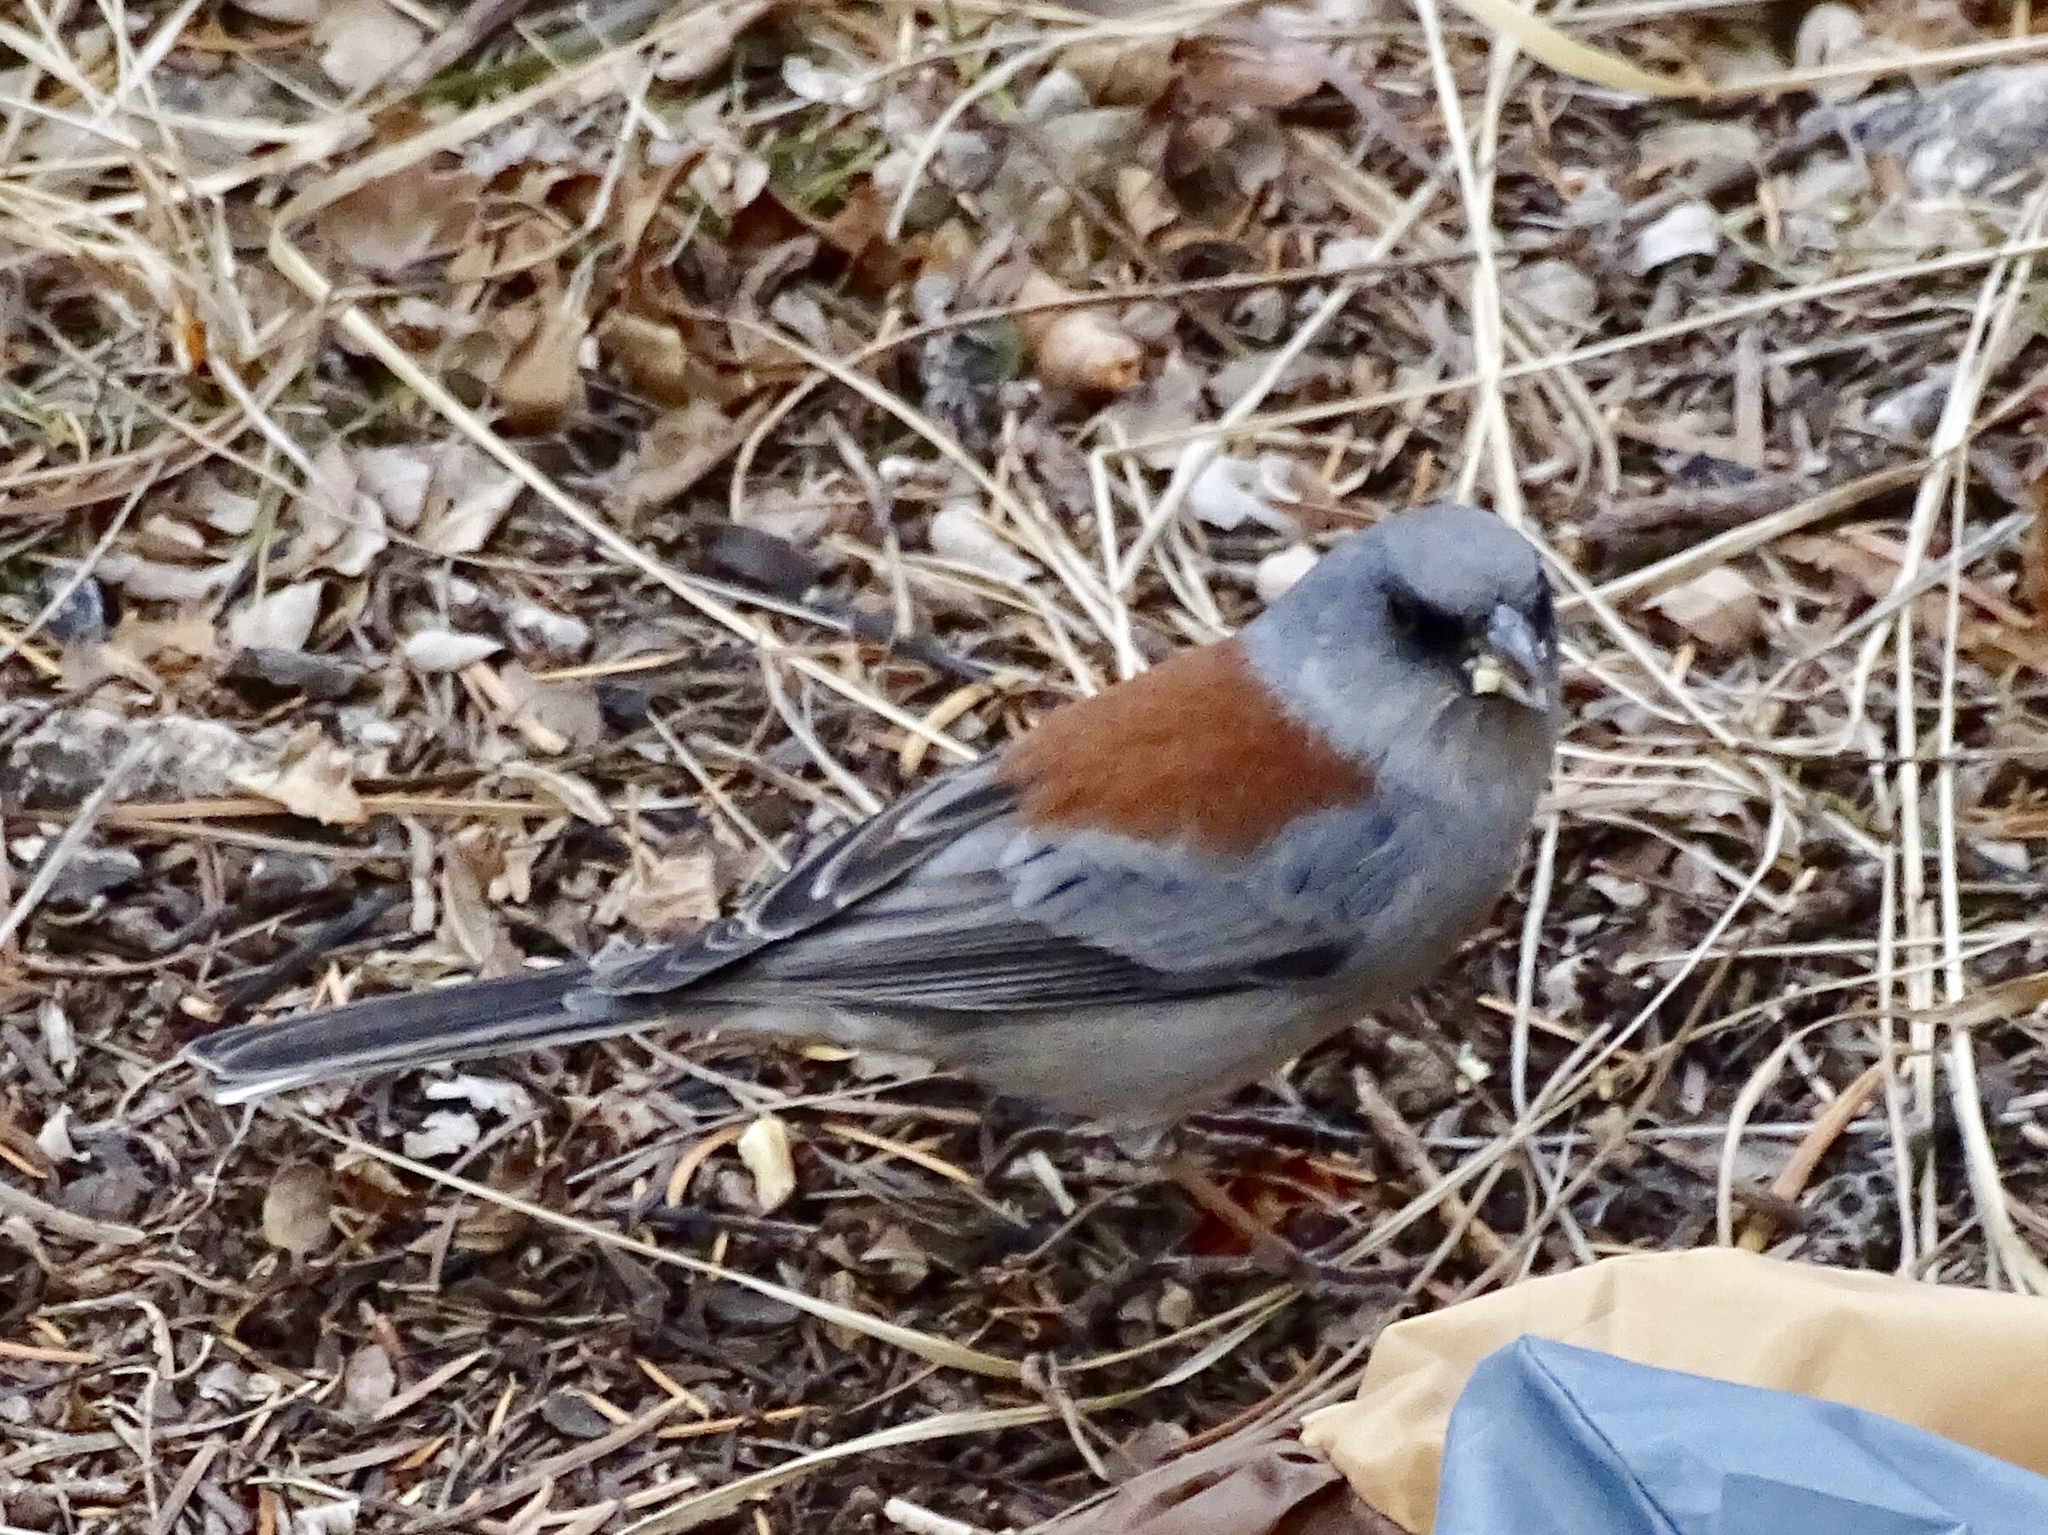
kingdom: Animalia
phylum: Chordata
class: Aves
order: Passeriformes
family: Passerellidae
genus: Junco
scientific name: Junco hyemalis
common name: Dark-eyed junco
